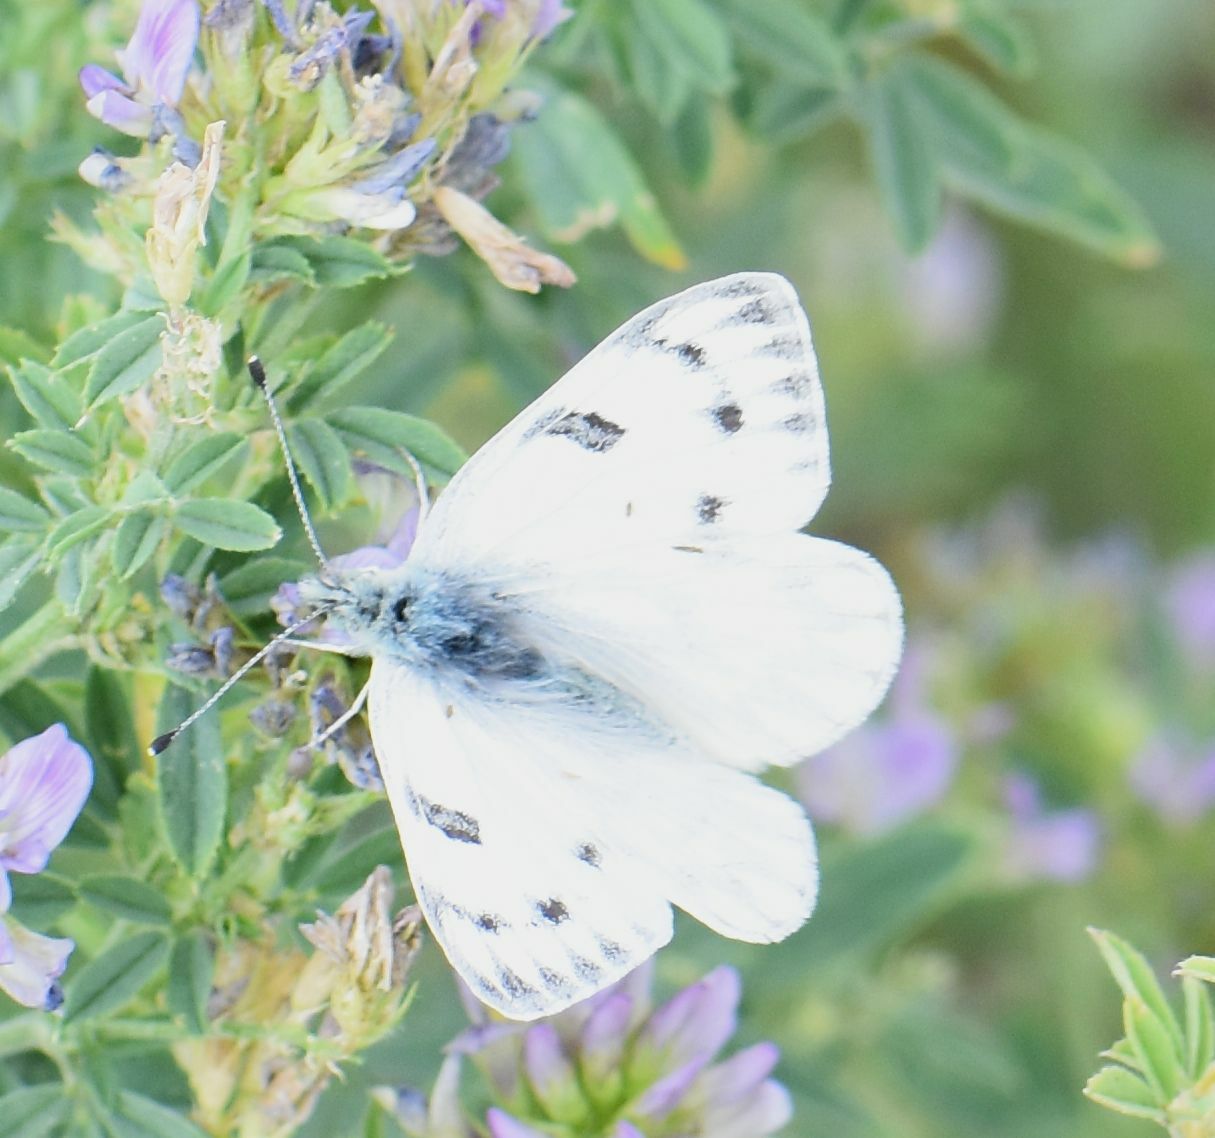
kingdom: Animalia
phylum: Arthropoda
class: Insecta
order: Lepidoptera
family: Pieridae
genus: Pontia
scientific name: Pontia occidentalis
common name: Western white
